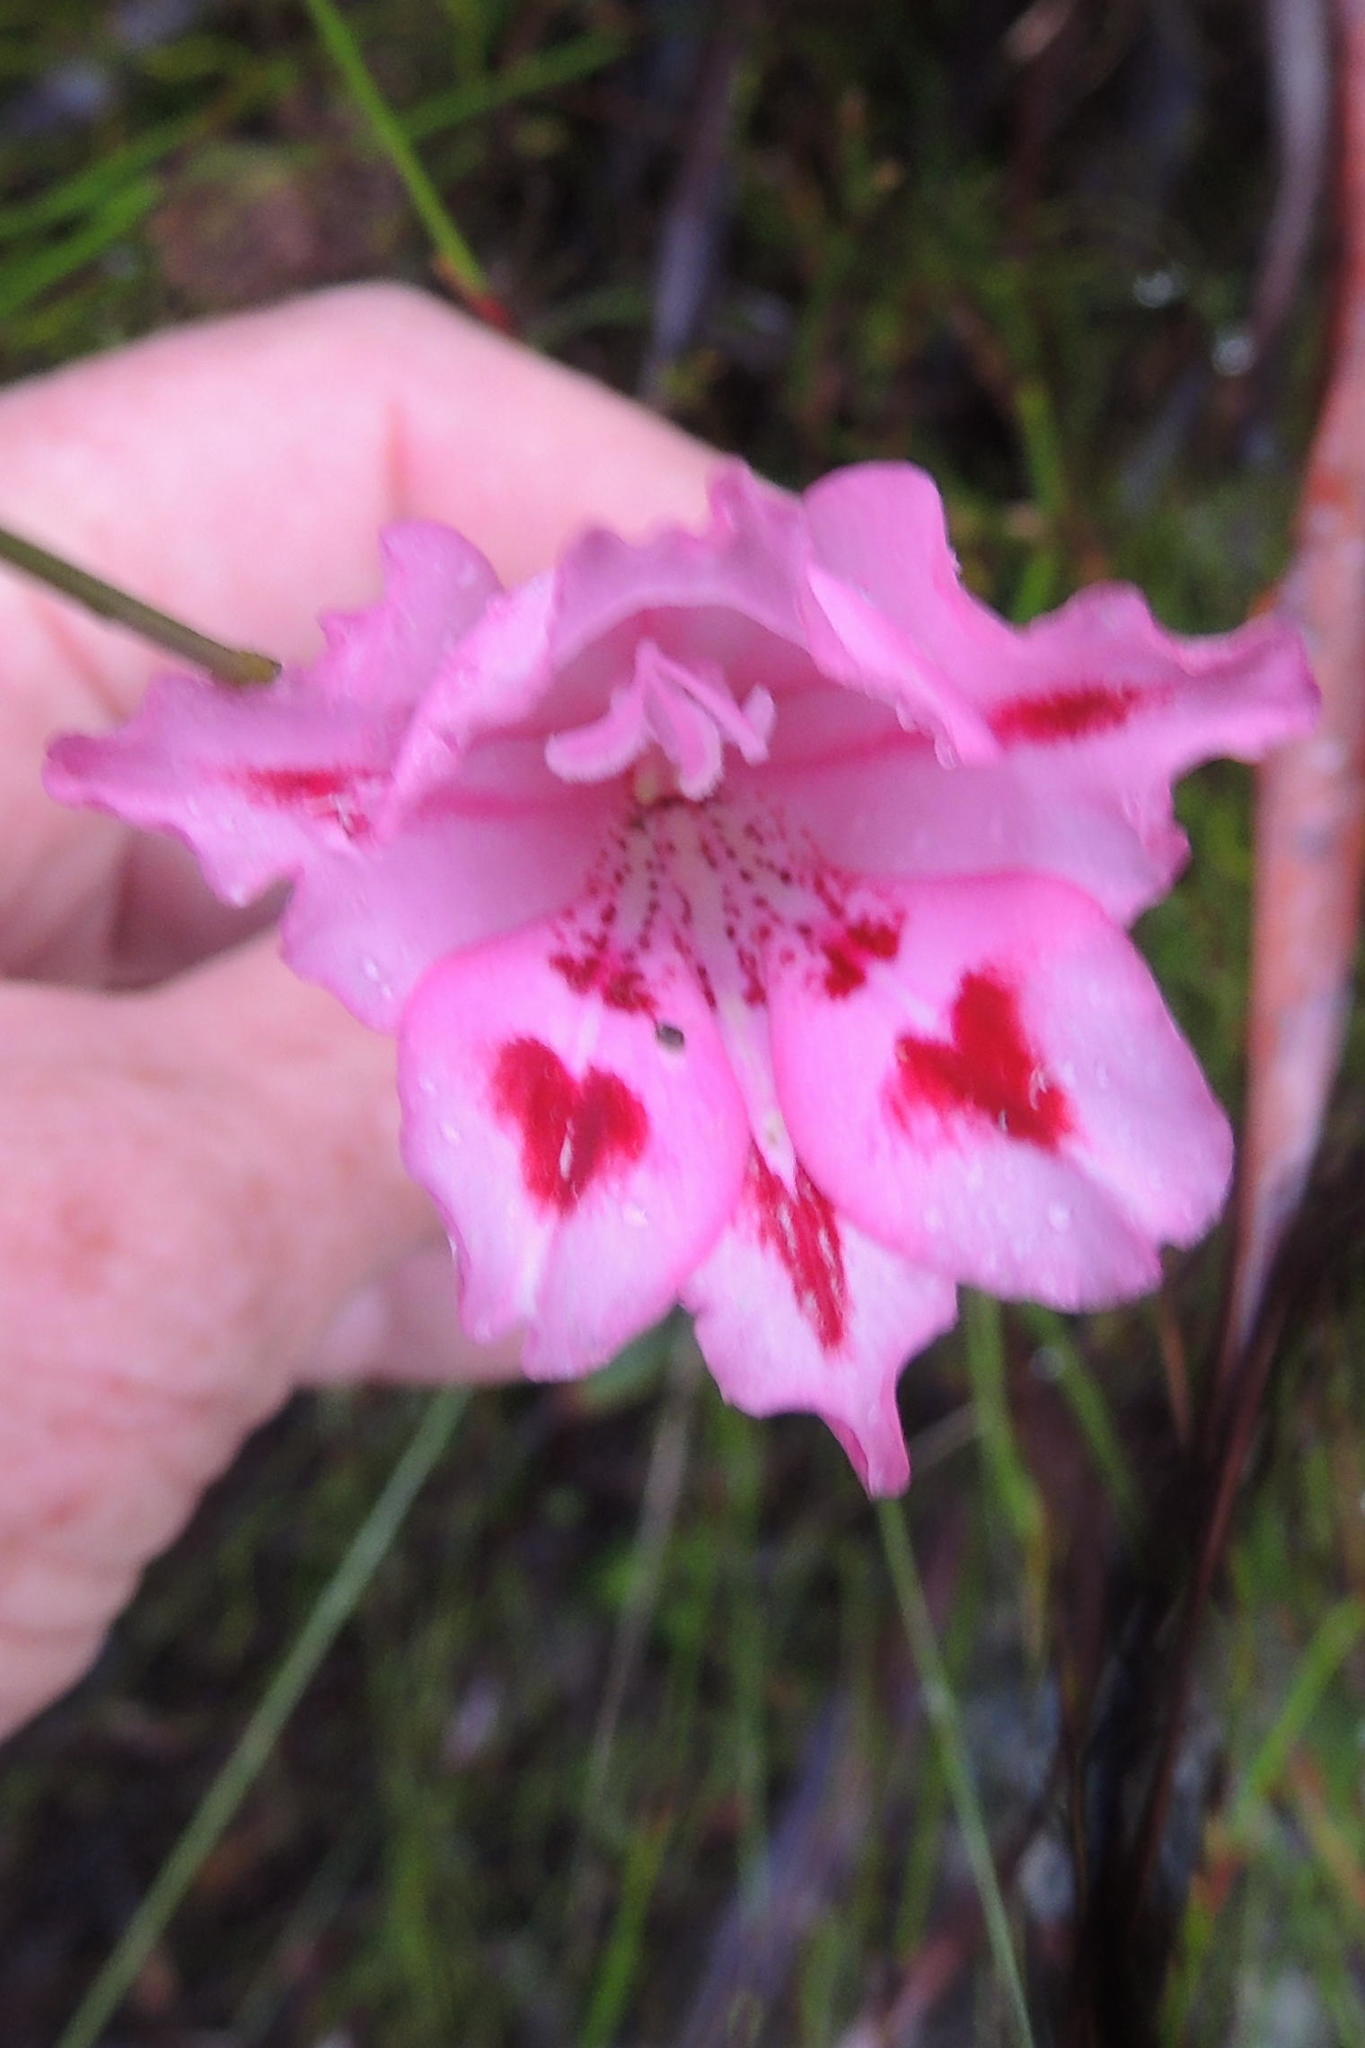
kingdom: Plantae
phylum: Tracheophyta
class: Liliopsida
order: Asparagales
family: Iridaceae
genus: Gladiolus
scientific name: Gladiolus crispulatus
